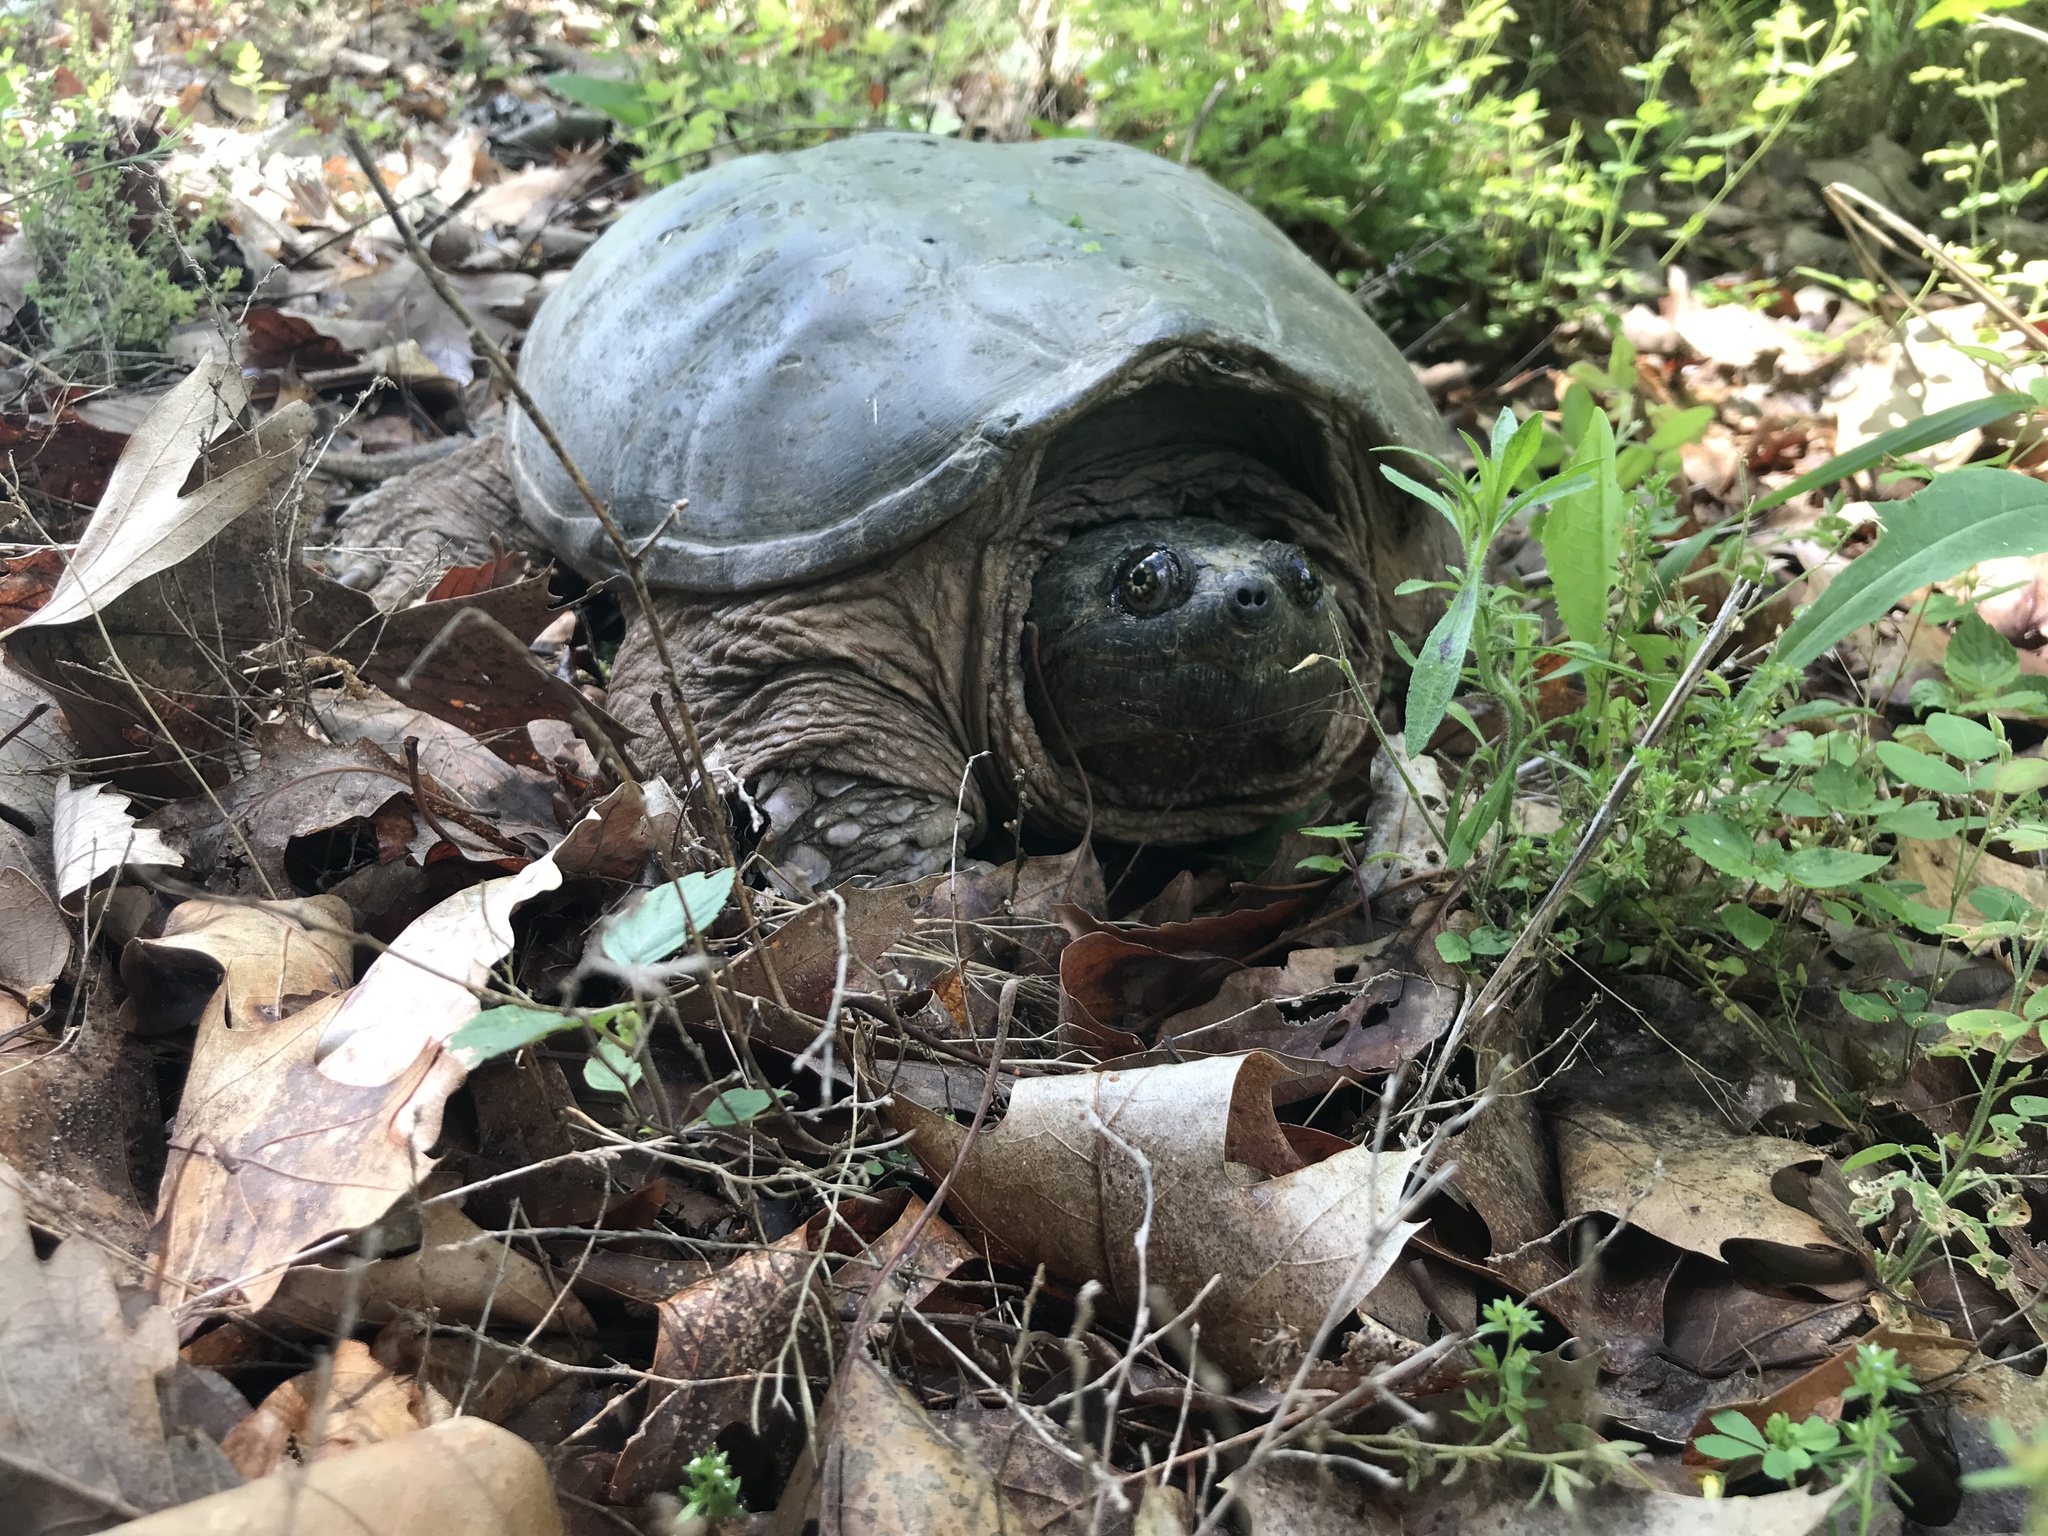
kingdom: Animalia
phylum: Chordata
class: Testudines
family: Chelydridae
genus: Chelydra
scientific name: Chelydra serpentina
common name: Common snapping turtle
